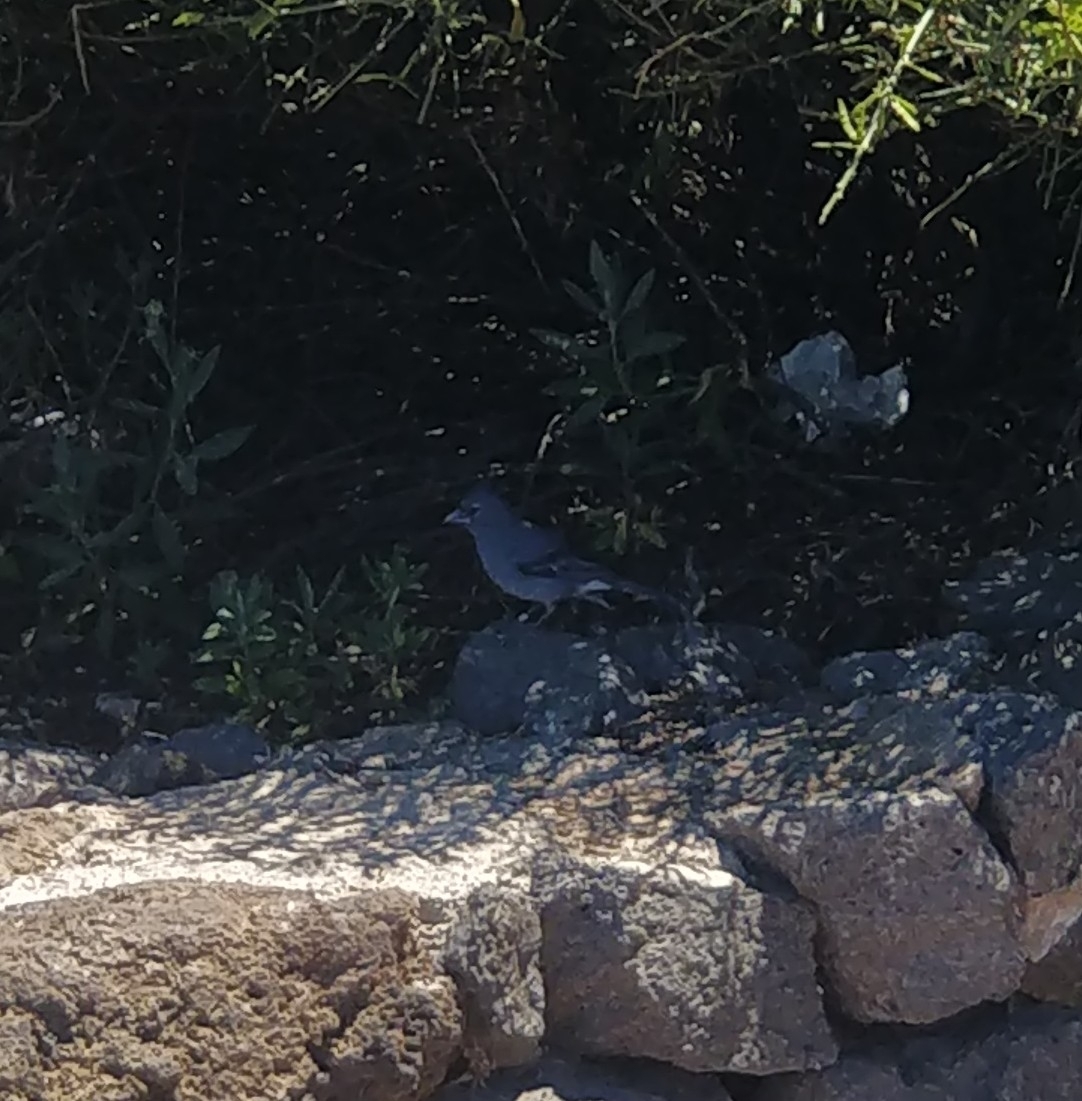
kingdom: Animalia
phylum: Chordata
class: Aves
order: Passeriformes
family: Fringillidae
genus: Fringilla
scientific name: Fringilla teydea
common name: Blue chaffinch
